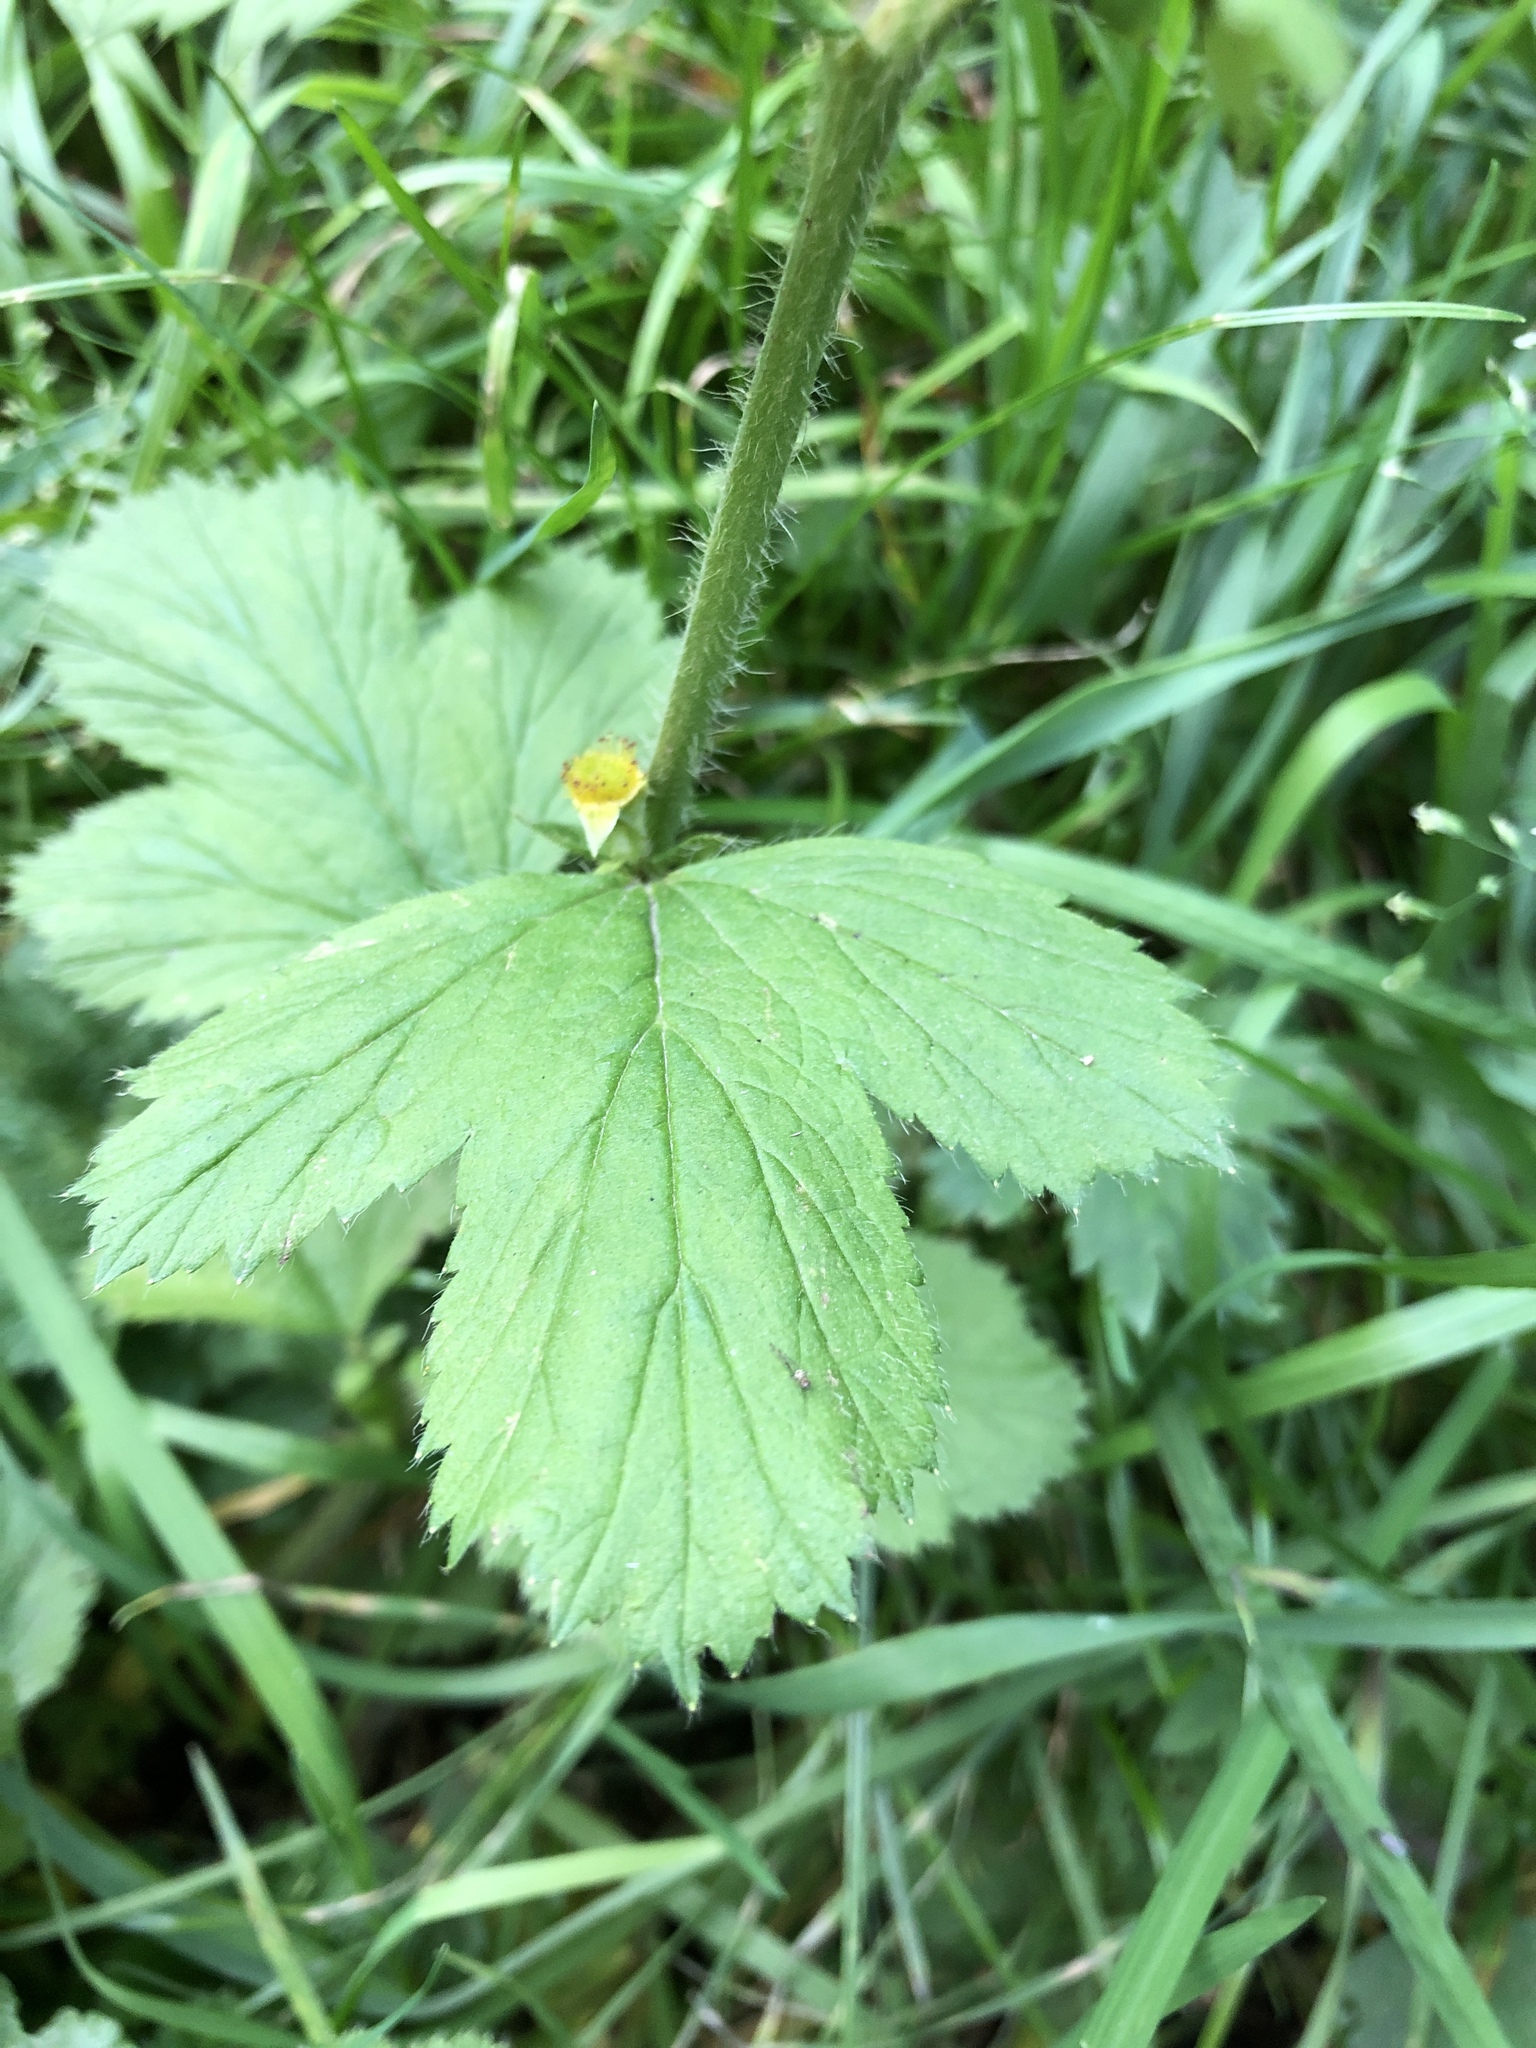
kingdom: Plantae
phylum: Tracheophyta
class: Magnoliopsida
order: Rosales
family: Rosaceae
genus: Geum
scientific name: Geum aleppicum
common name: Yellow avens
